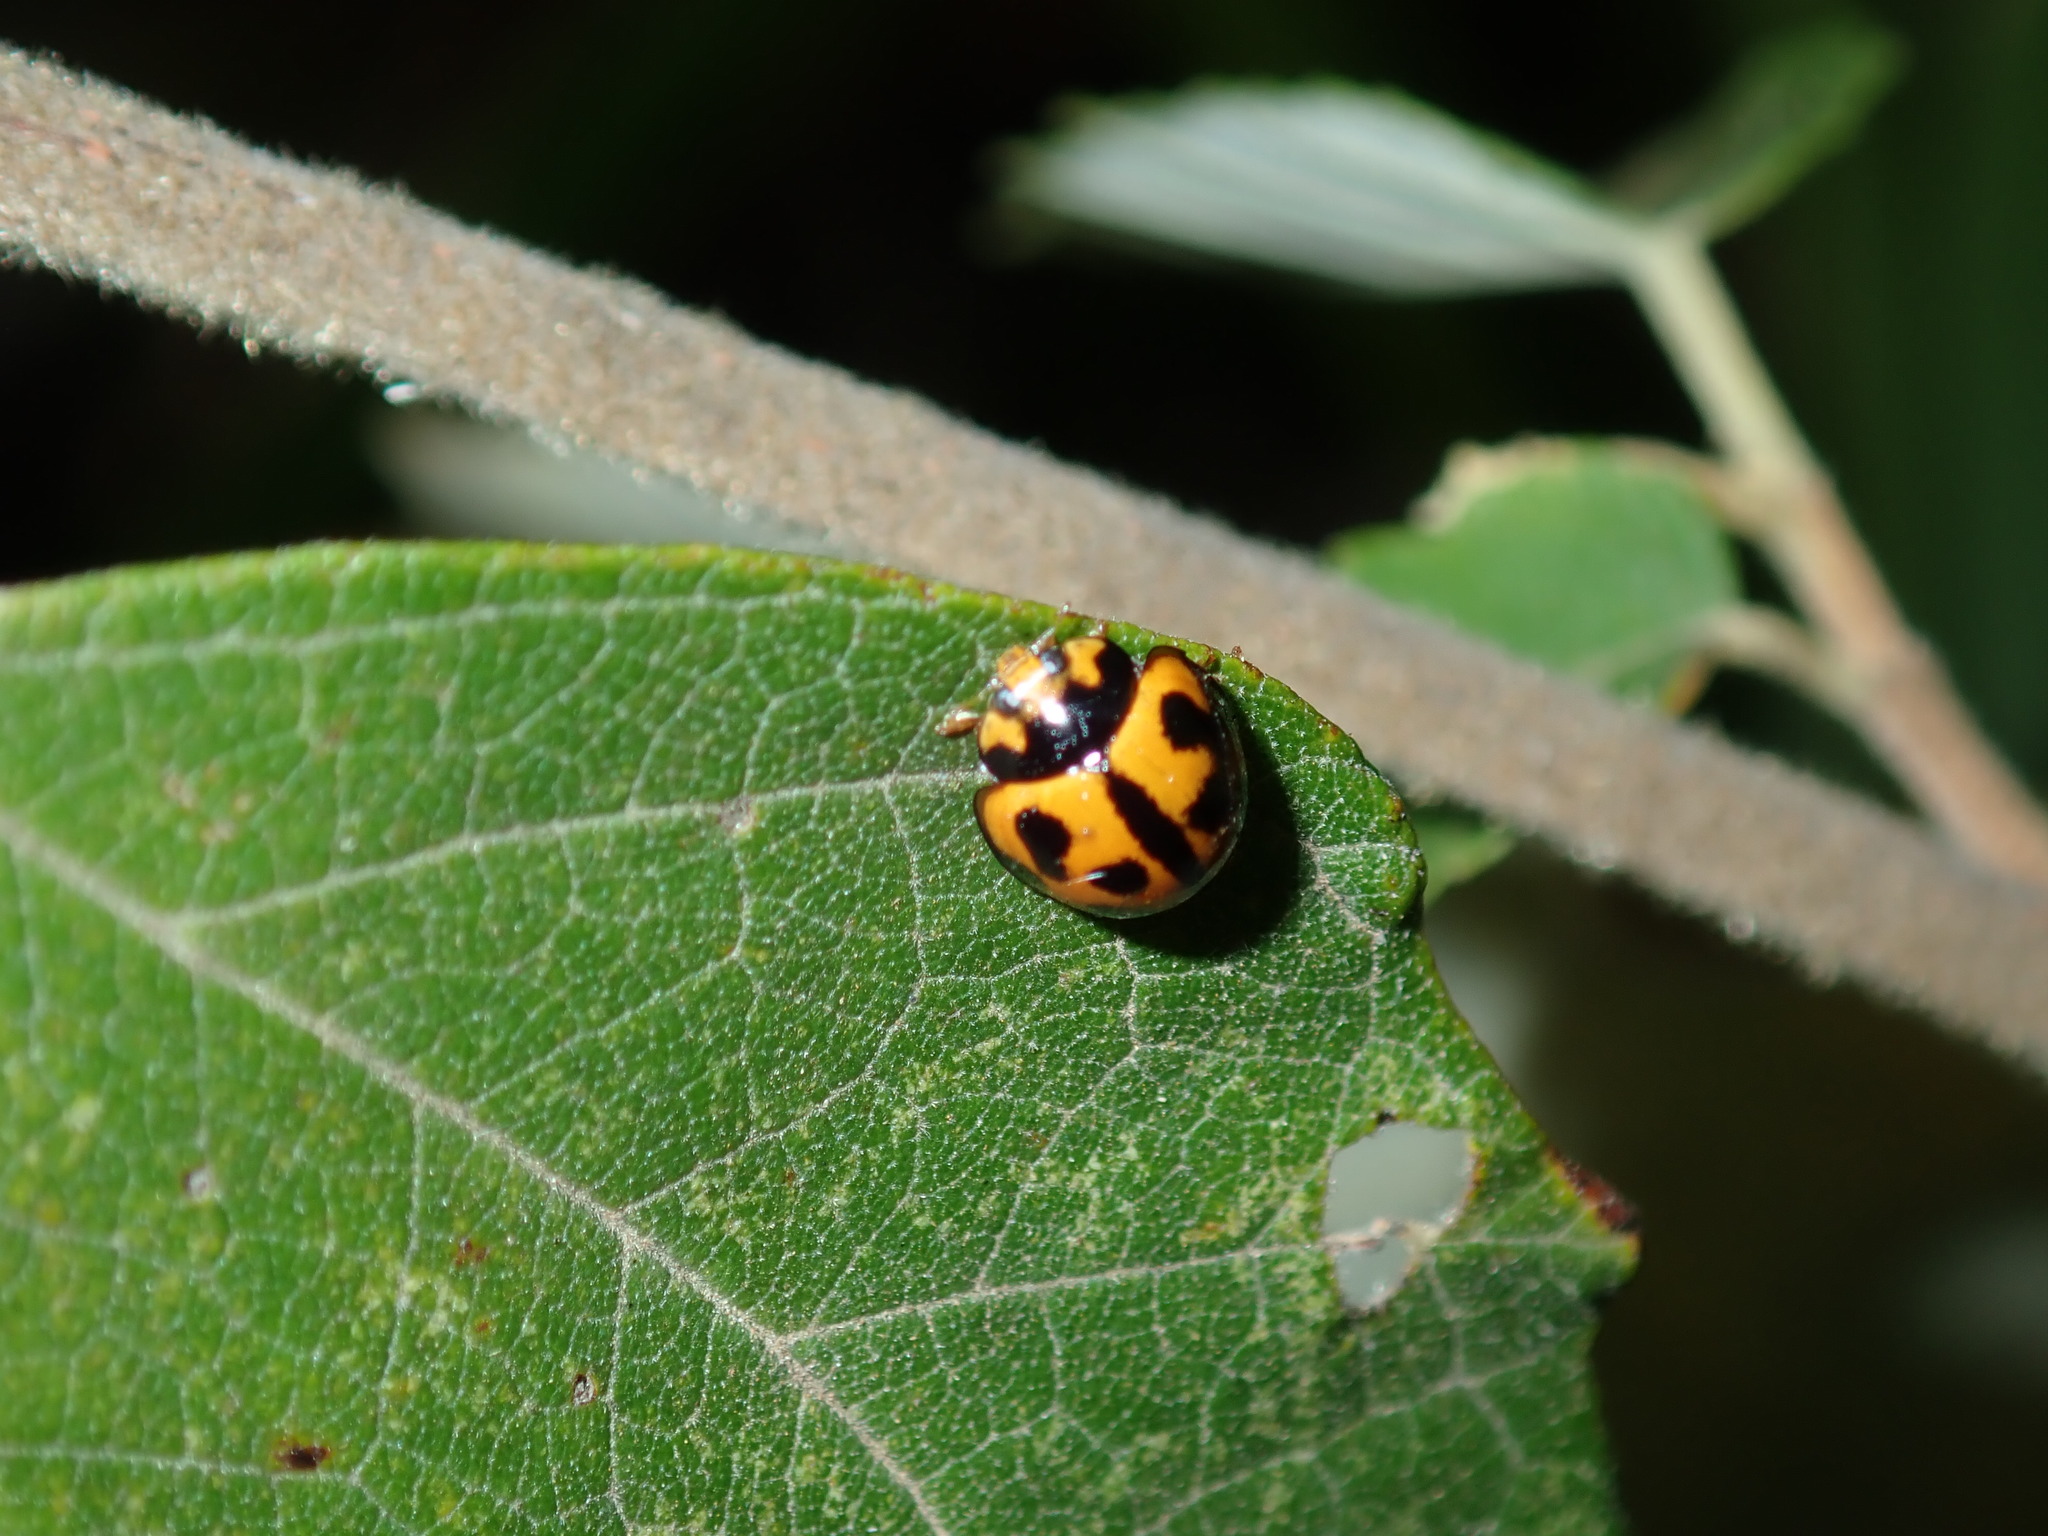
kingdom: Animalia
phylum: Arthropoda
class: Insecta
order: Coleoptera
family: Coccinellidae
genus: Coelophora
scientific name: Coelophora inaequalis
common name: Common australian lady beetle
